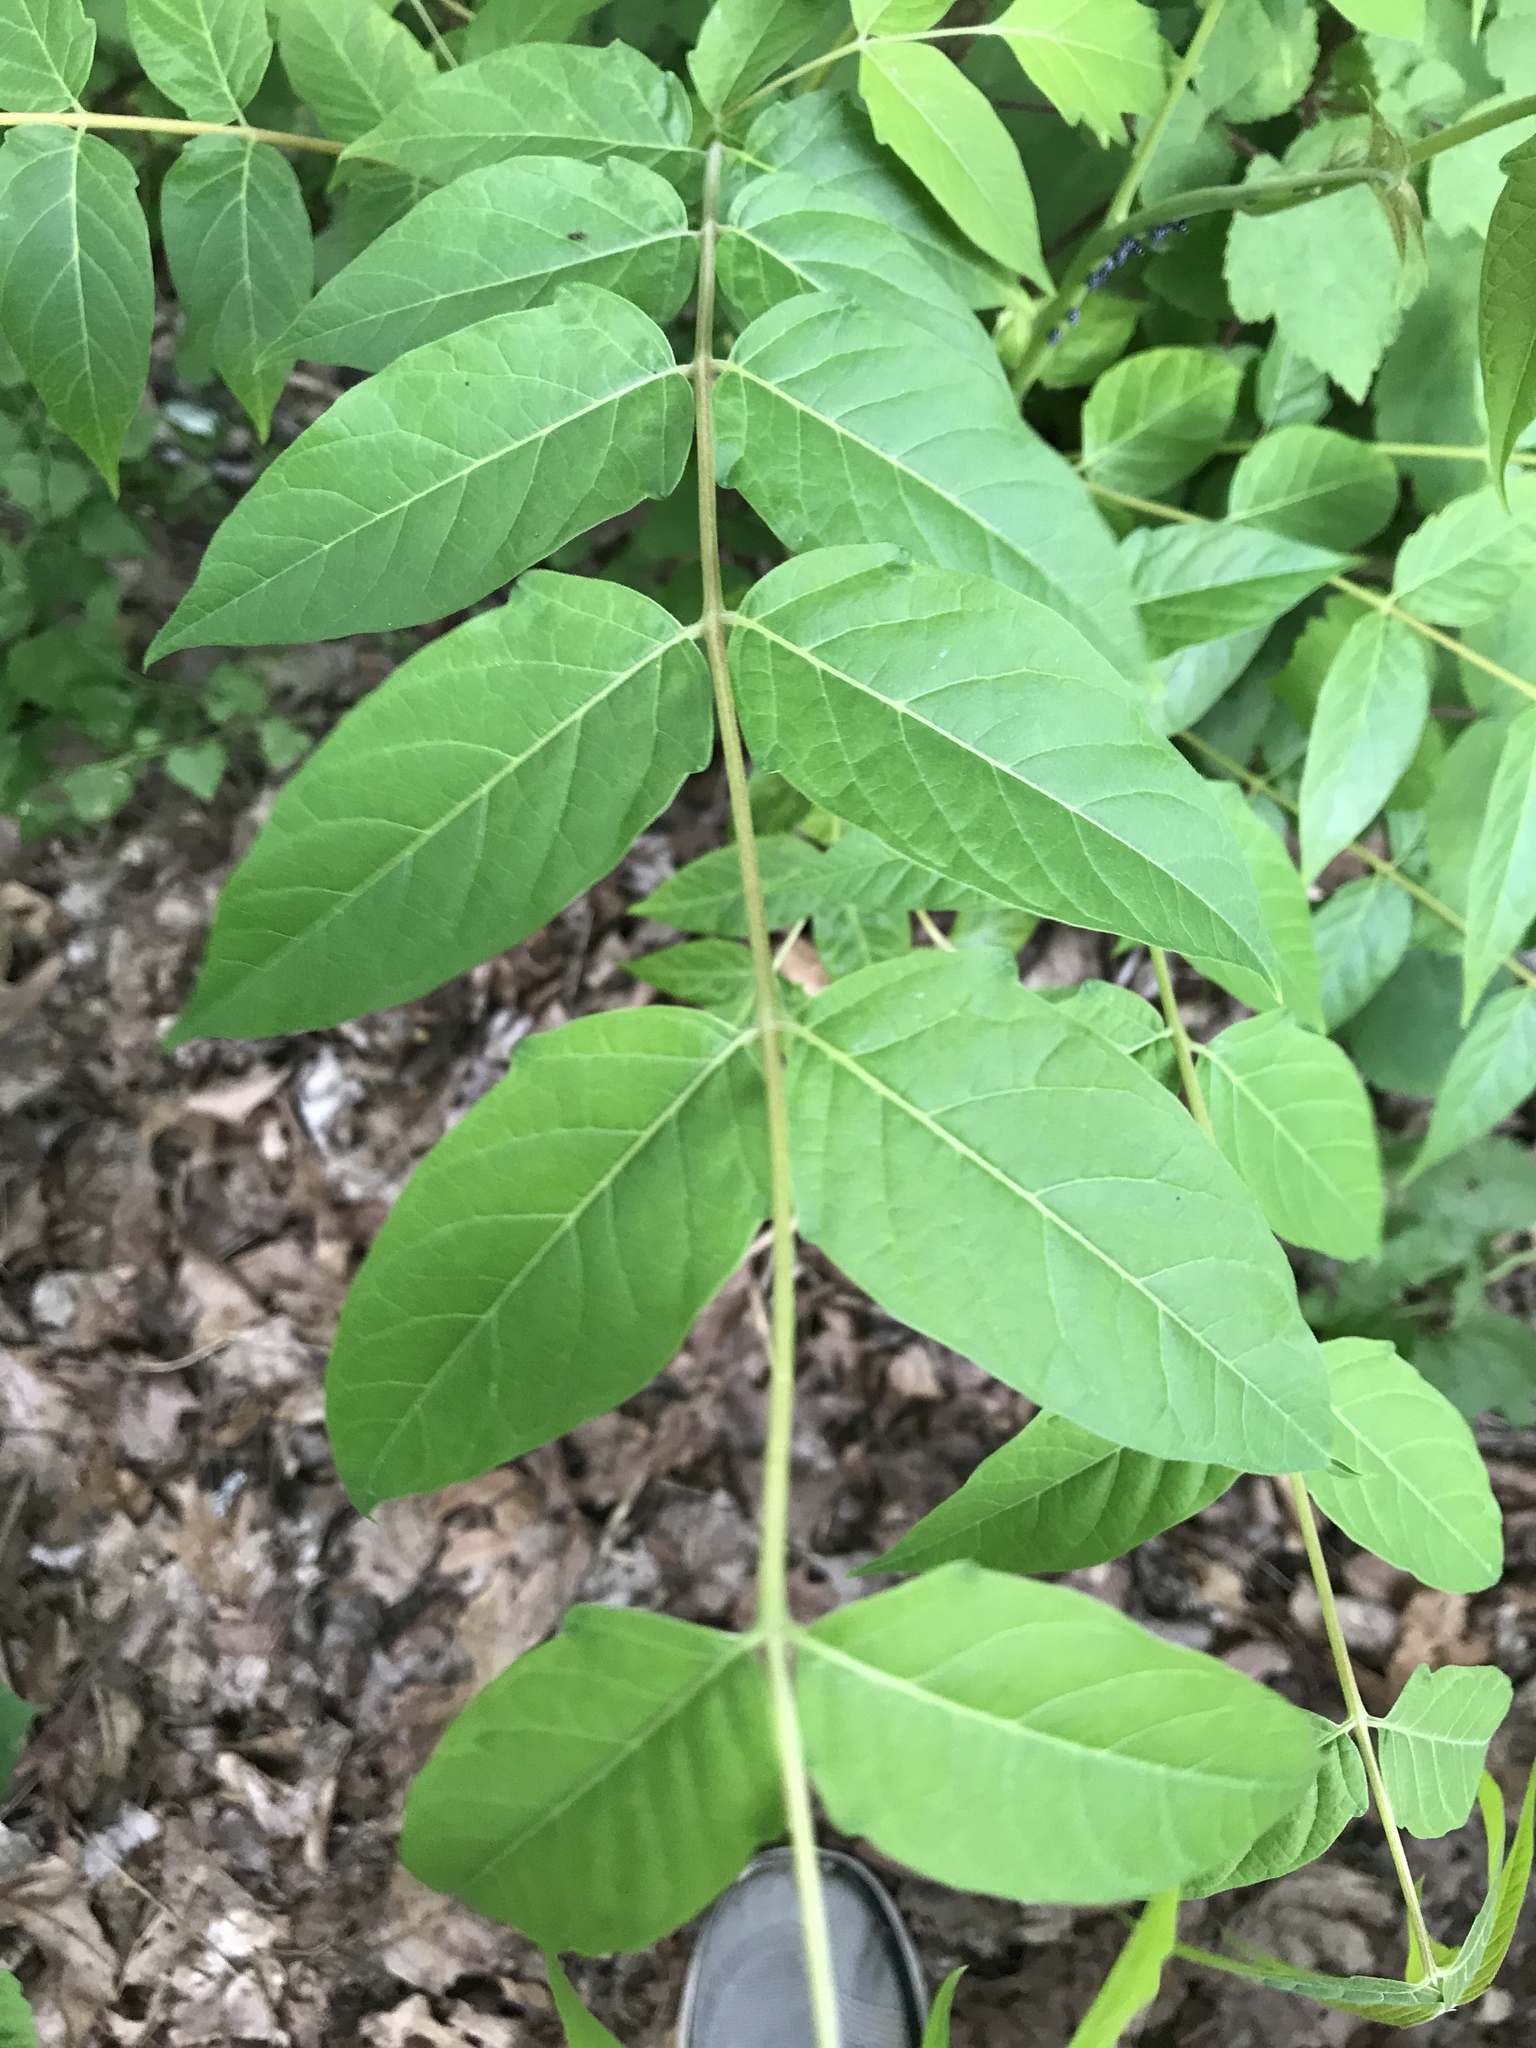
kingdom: Plantae
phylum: Tracheophyta
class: Magnoliopsida
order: Sapindales
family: Simaroubaceae
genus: Ailanthus
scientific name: Ailanthus altissima
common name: Tree-of-heaven
